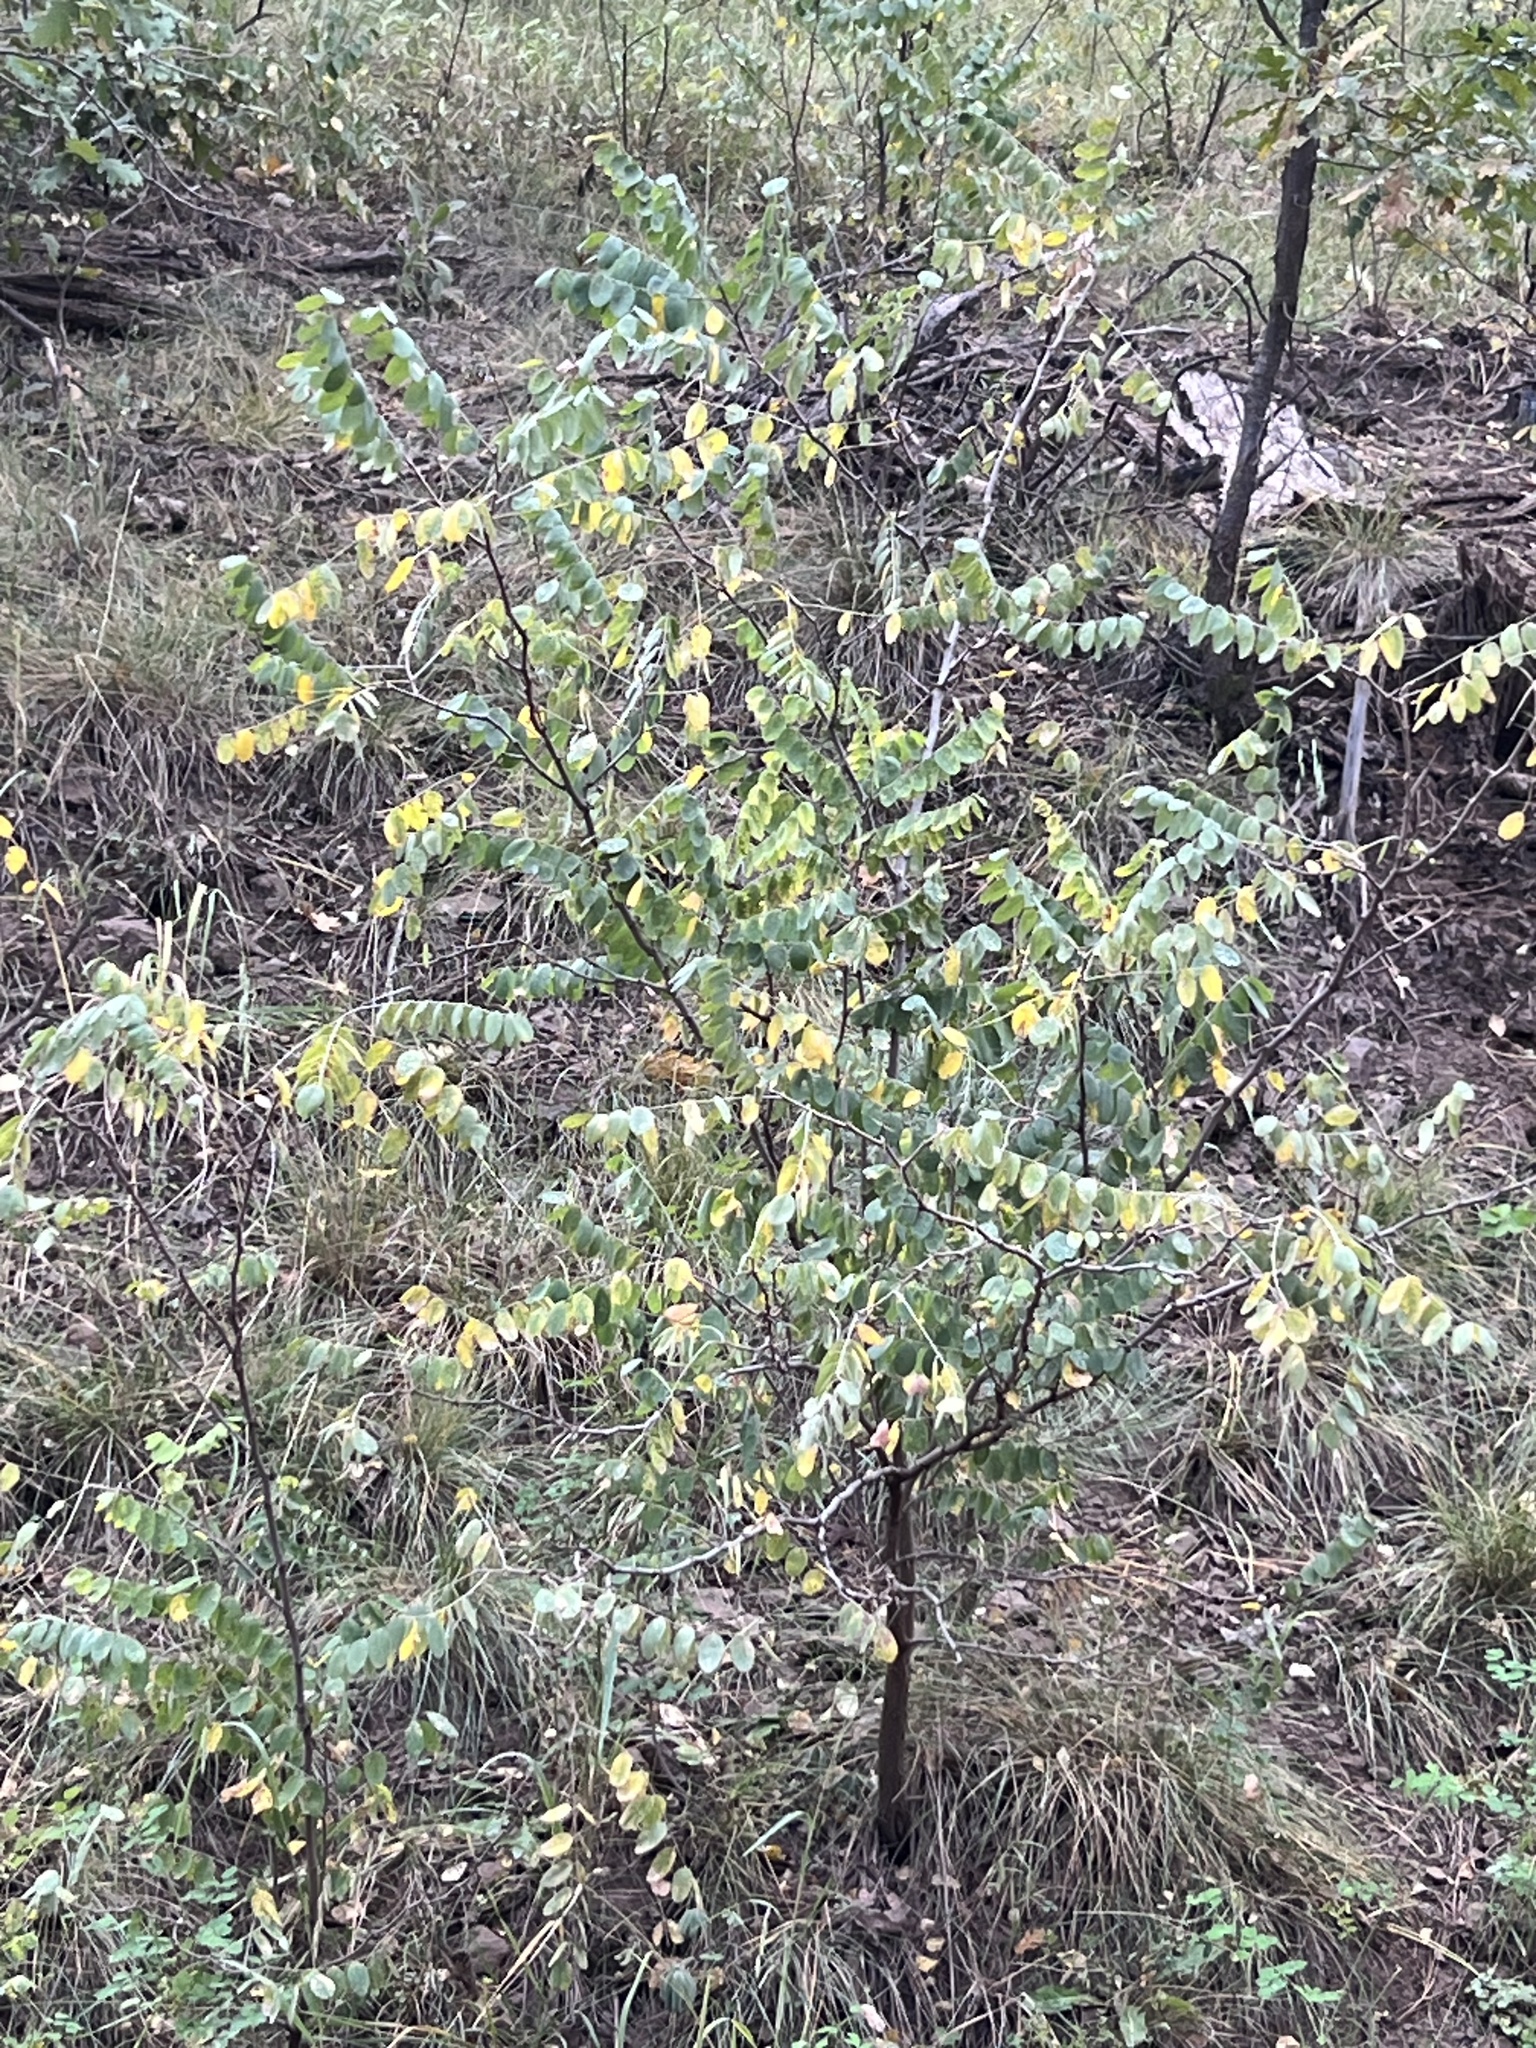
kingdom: Plantae
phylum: Tracheophyta
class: Magnoliopsida
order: Fabales
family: Fabaceae
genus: Robinia
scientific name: Robinia neomexicana
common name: New mexico locust
